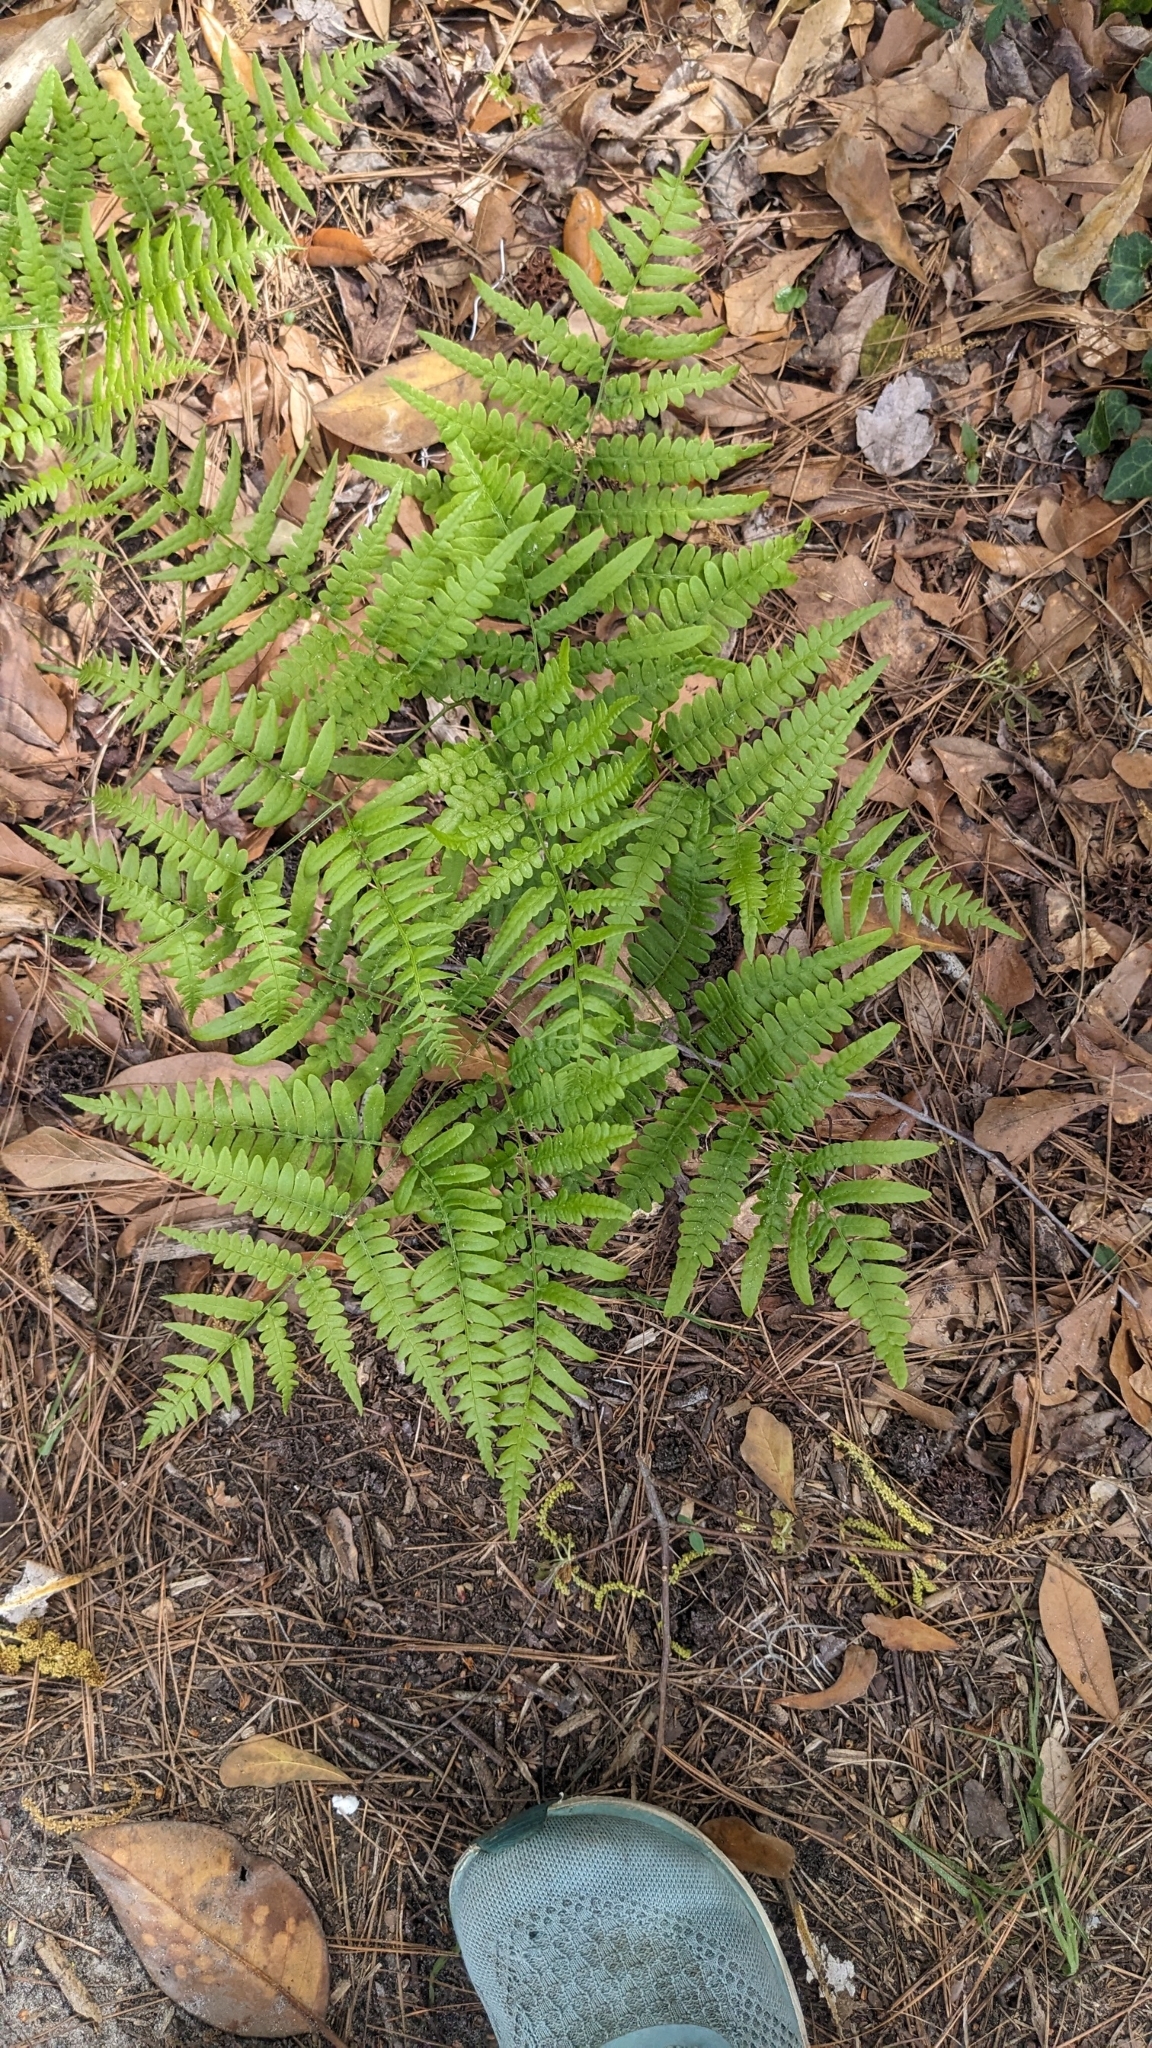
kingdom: Plantae
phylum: Tracheophyta
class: Polypodiopsida
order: Polypodiales
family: Dennstaedtiaceae
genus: Pteridium
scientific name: Pteridium aquilinum
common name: Bracken
